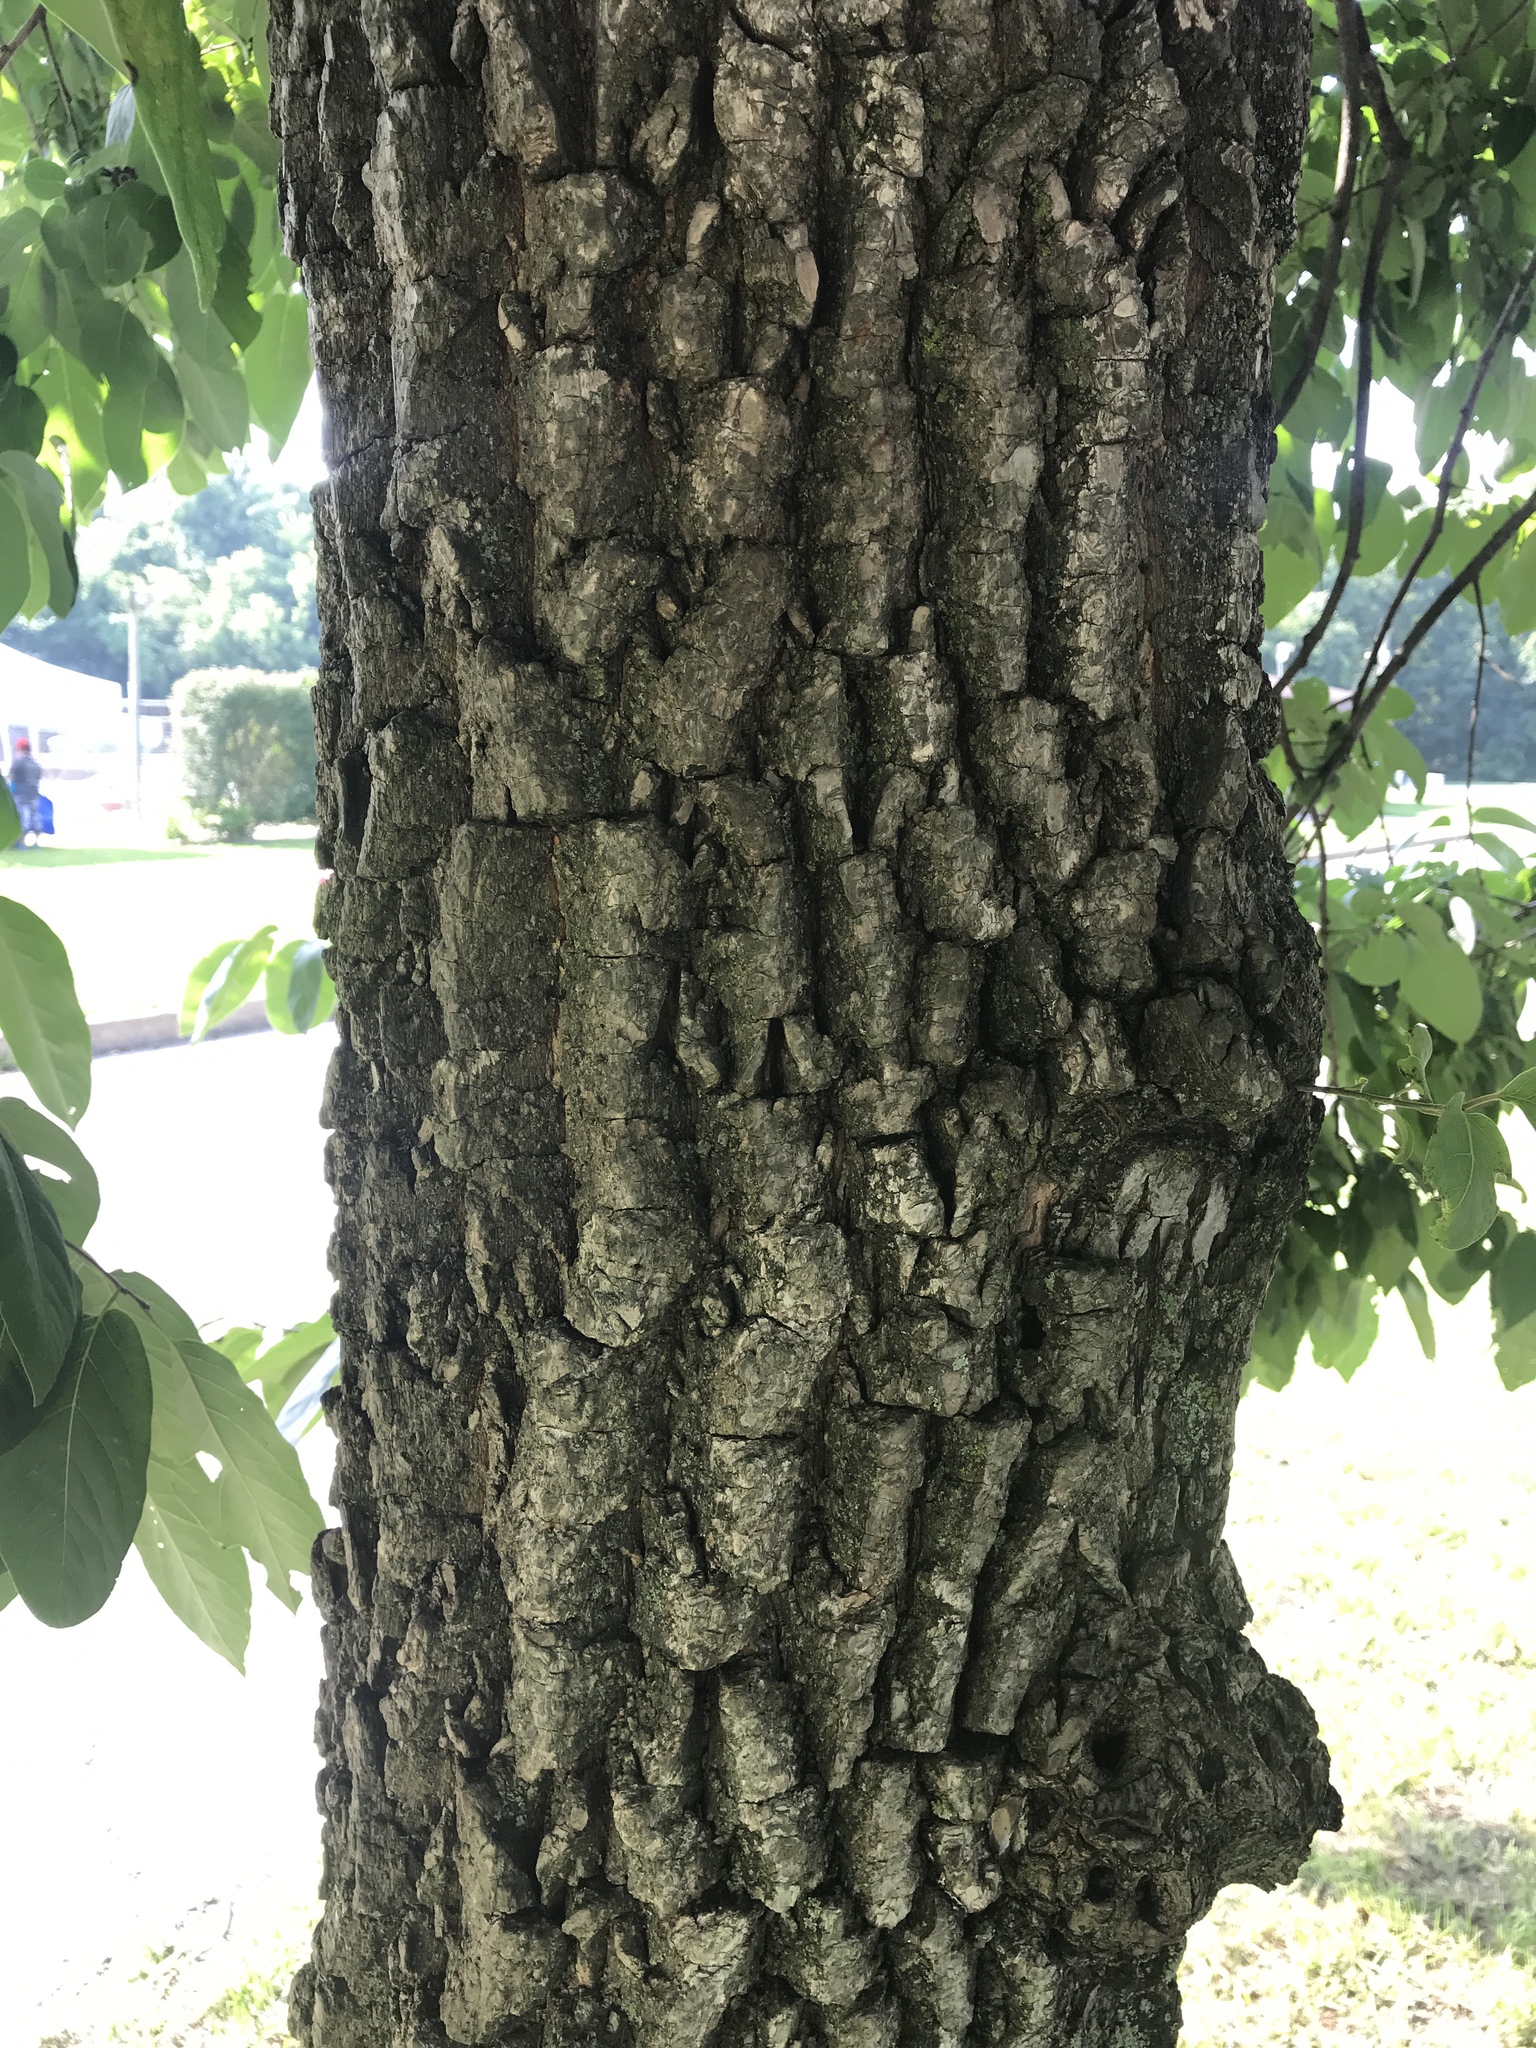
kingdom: Plantae
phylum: Tracheophyta
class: Magnoliopsida
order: Ericales
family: Ebenaceae
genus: Diospyros
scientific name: Diospyros virginiana
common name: Persimmon
